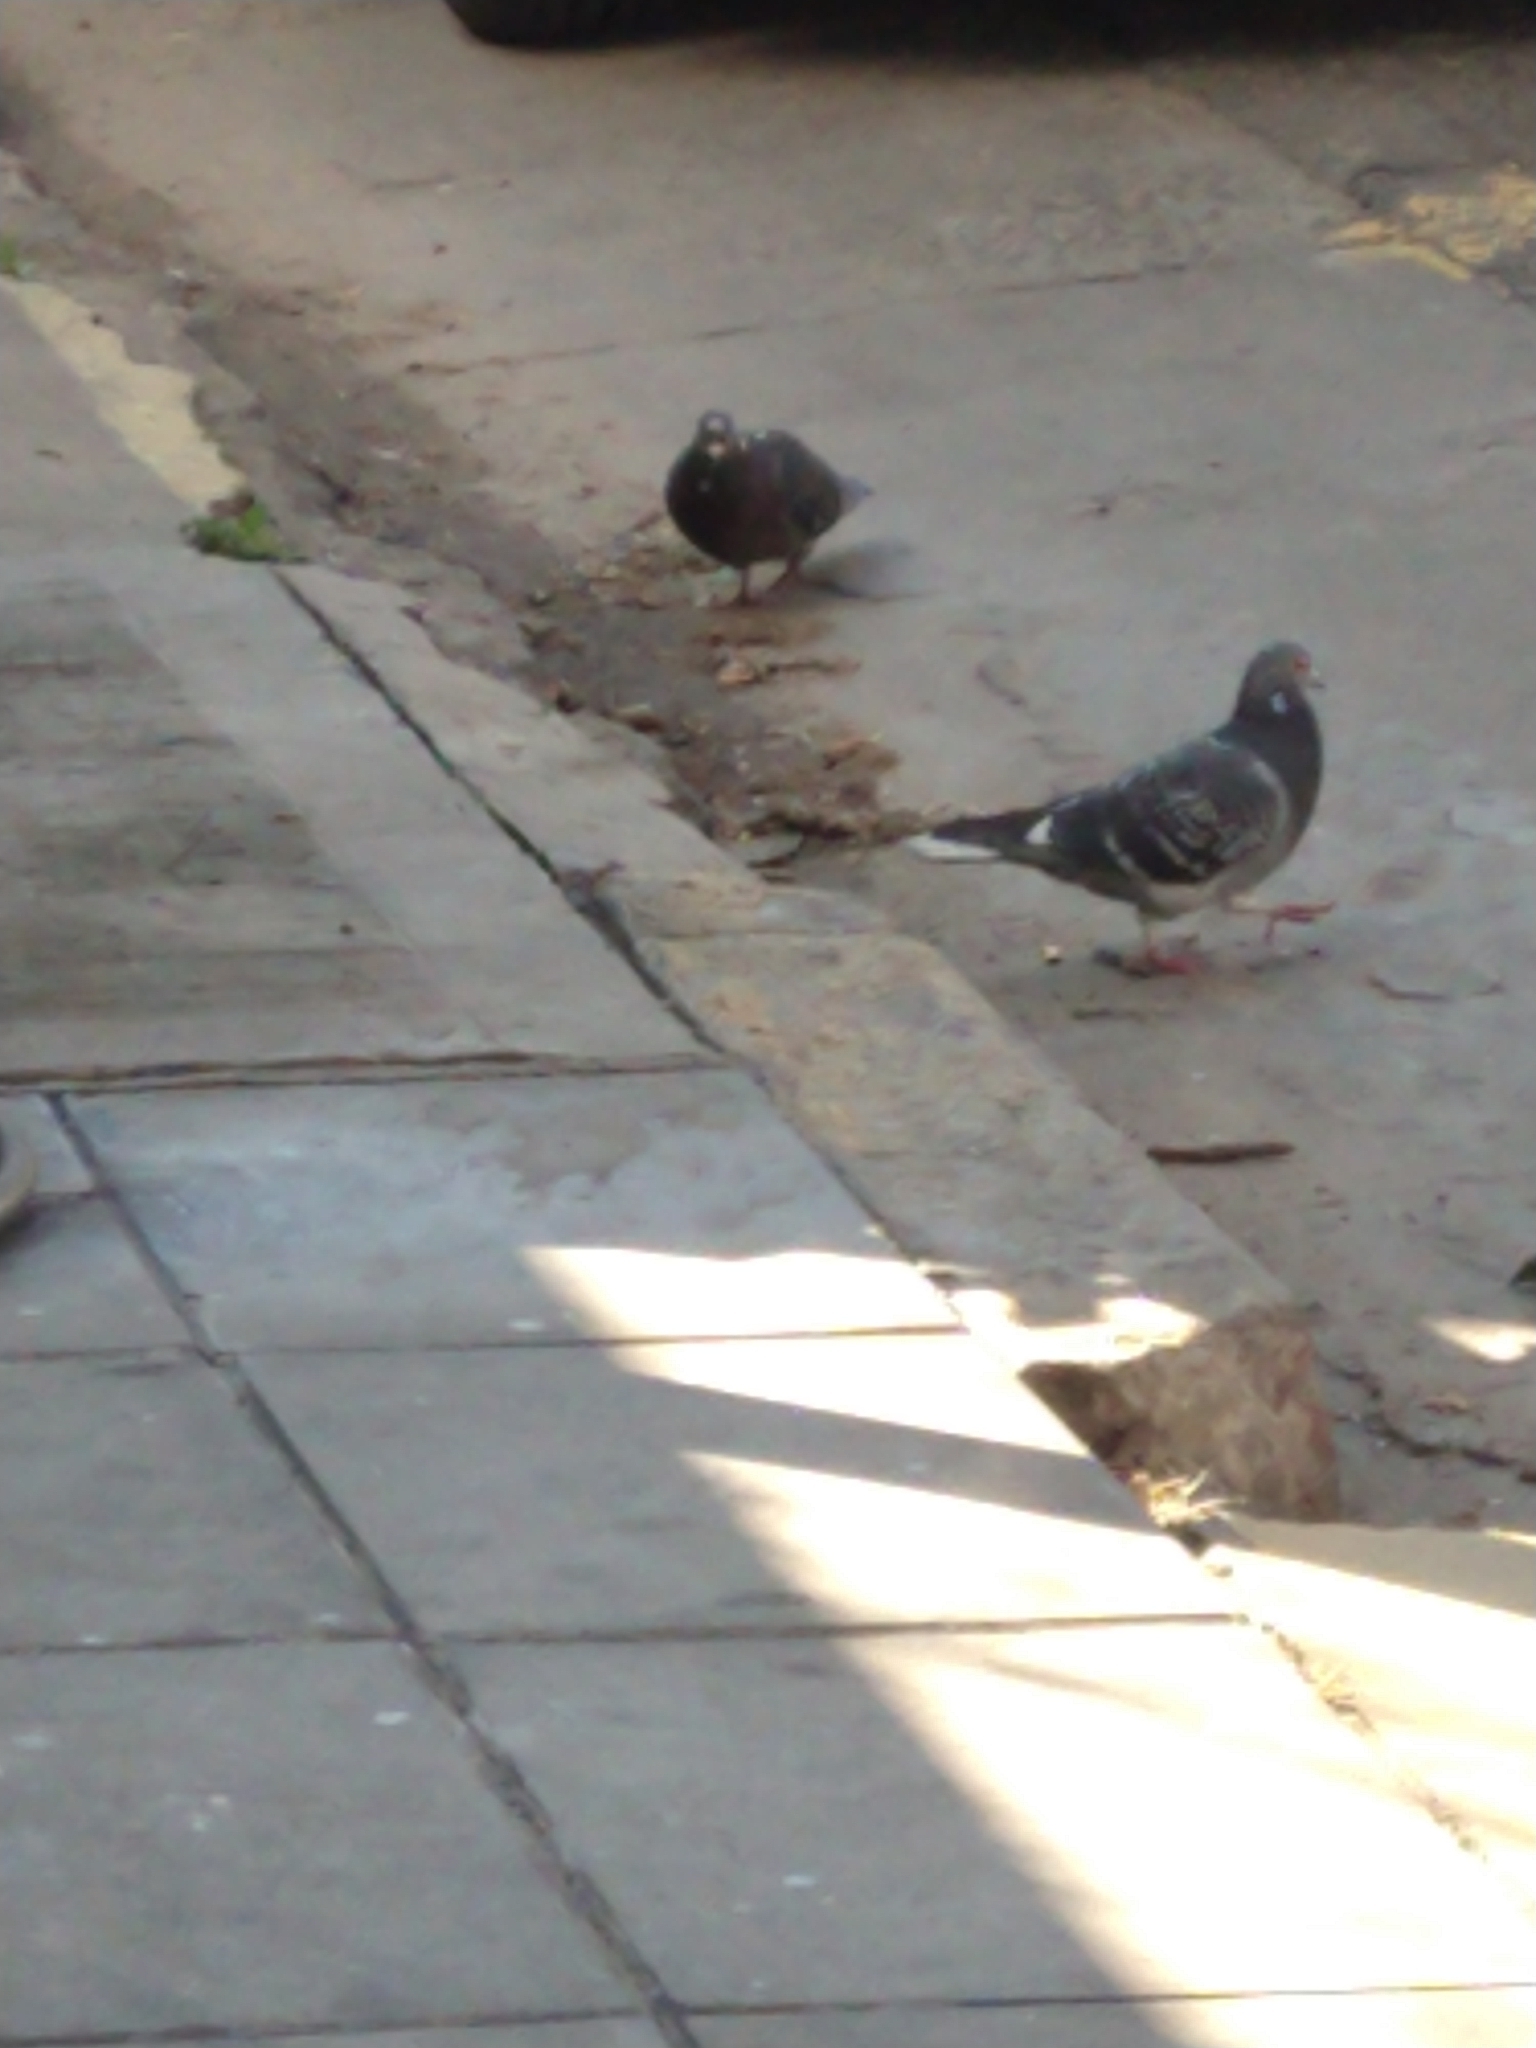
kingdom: Animalia
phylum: Chordata
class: Aves
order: Columbiformes
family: Columbidae
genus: Columba
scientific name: Columba livia
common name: Rock pigeon
